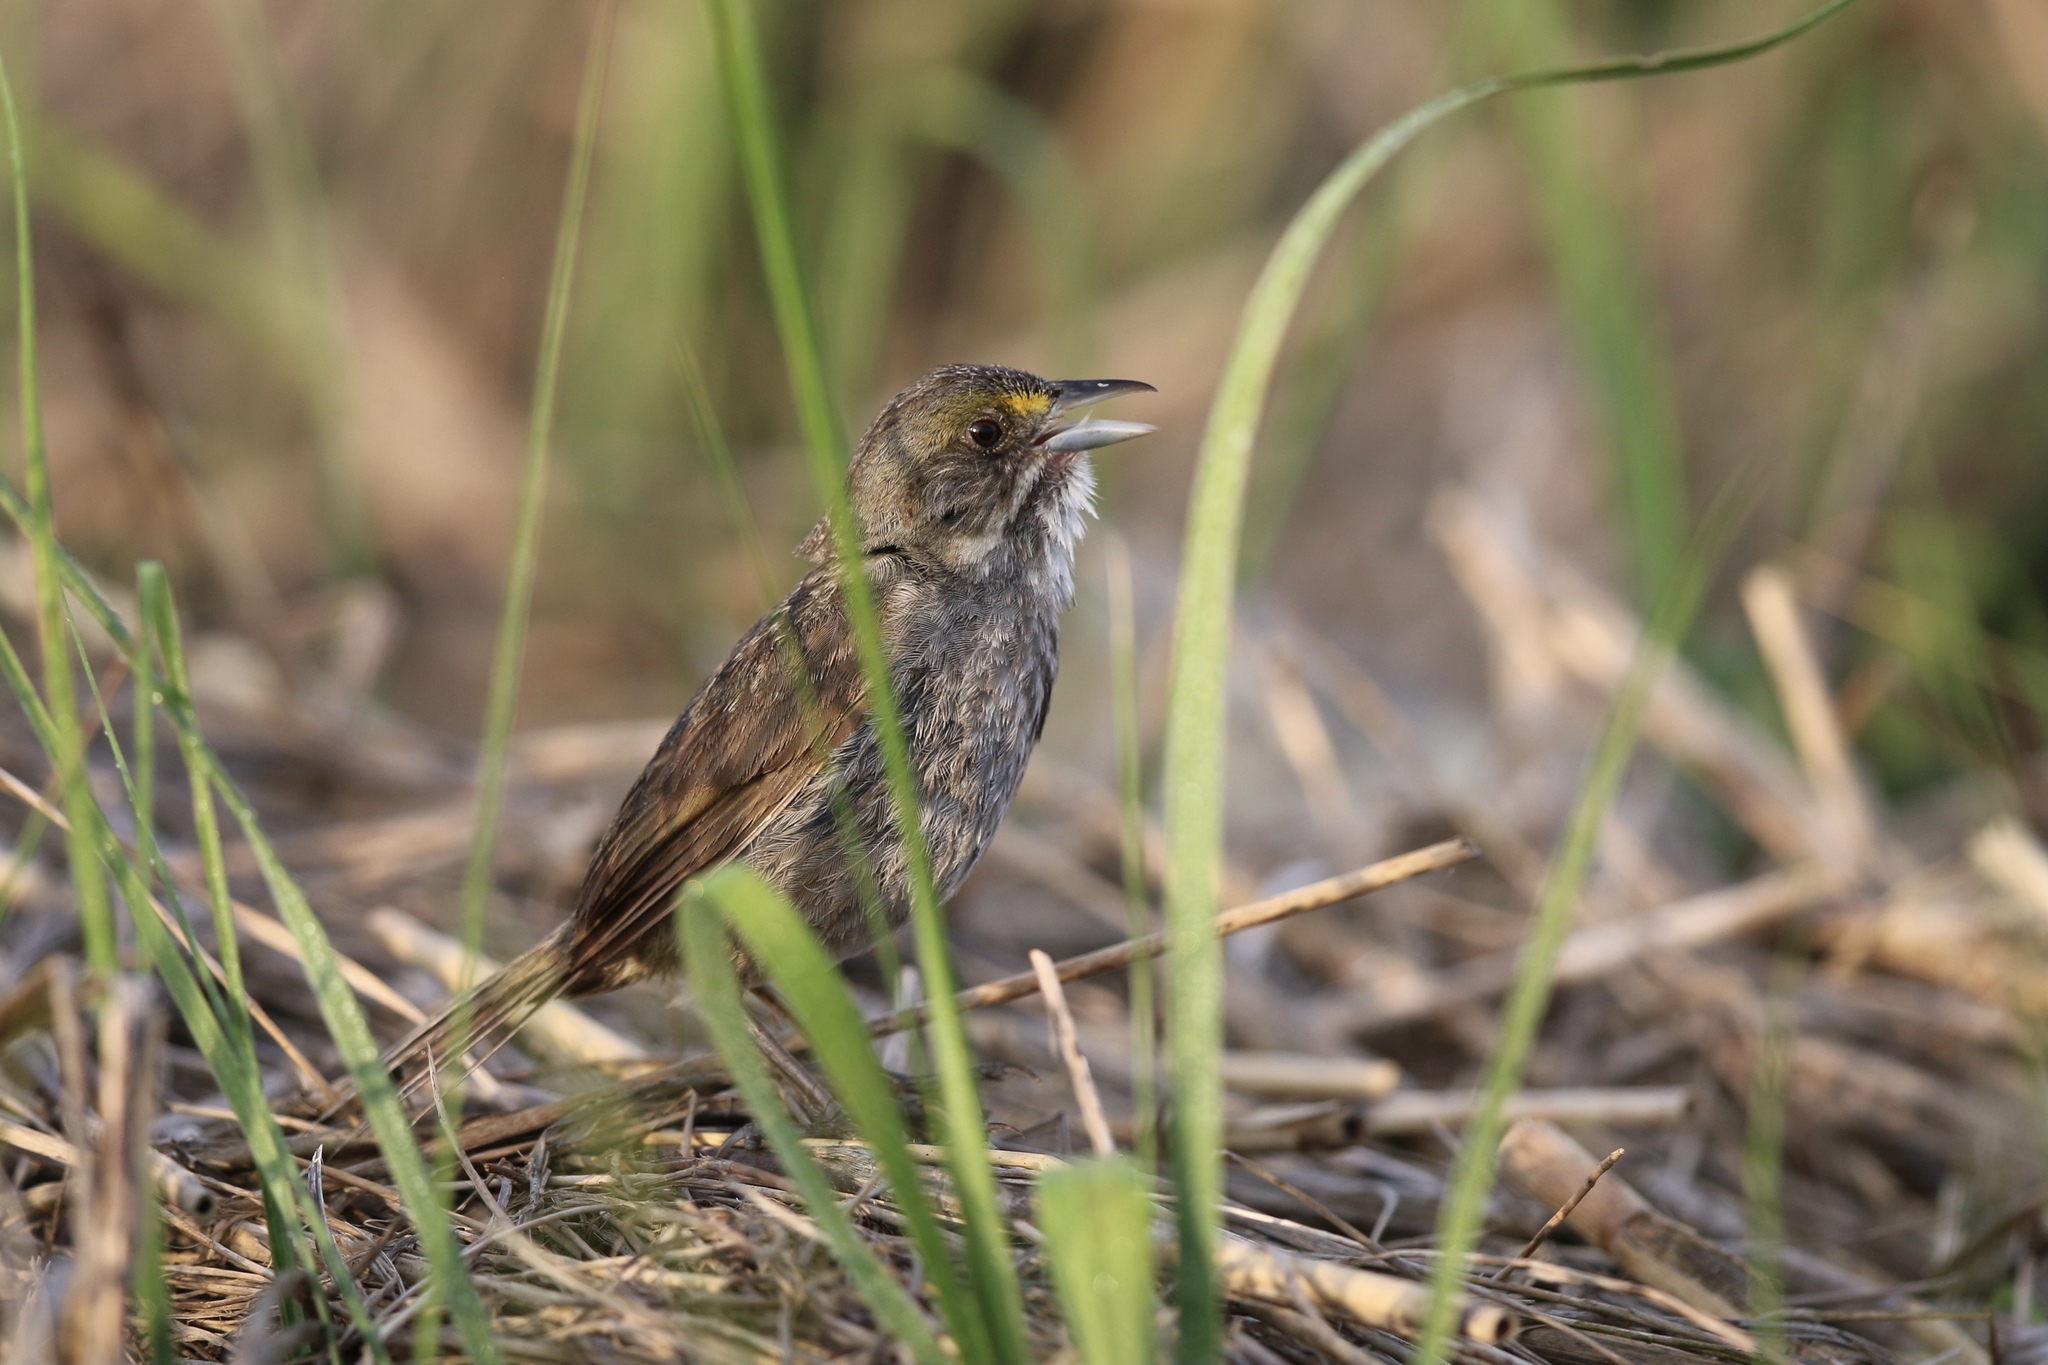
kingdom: Animalia
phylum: Chordata
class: Aves
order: Passeriformes
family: Passerellidae
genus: Ammospiza
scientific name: Ammospiza maritima
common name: Seaside sparrow
